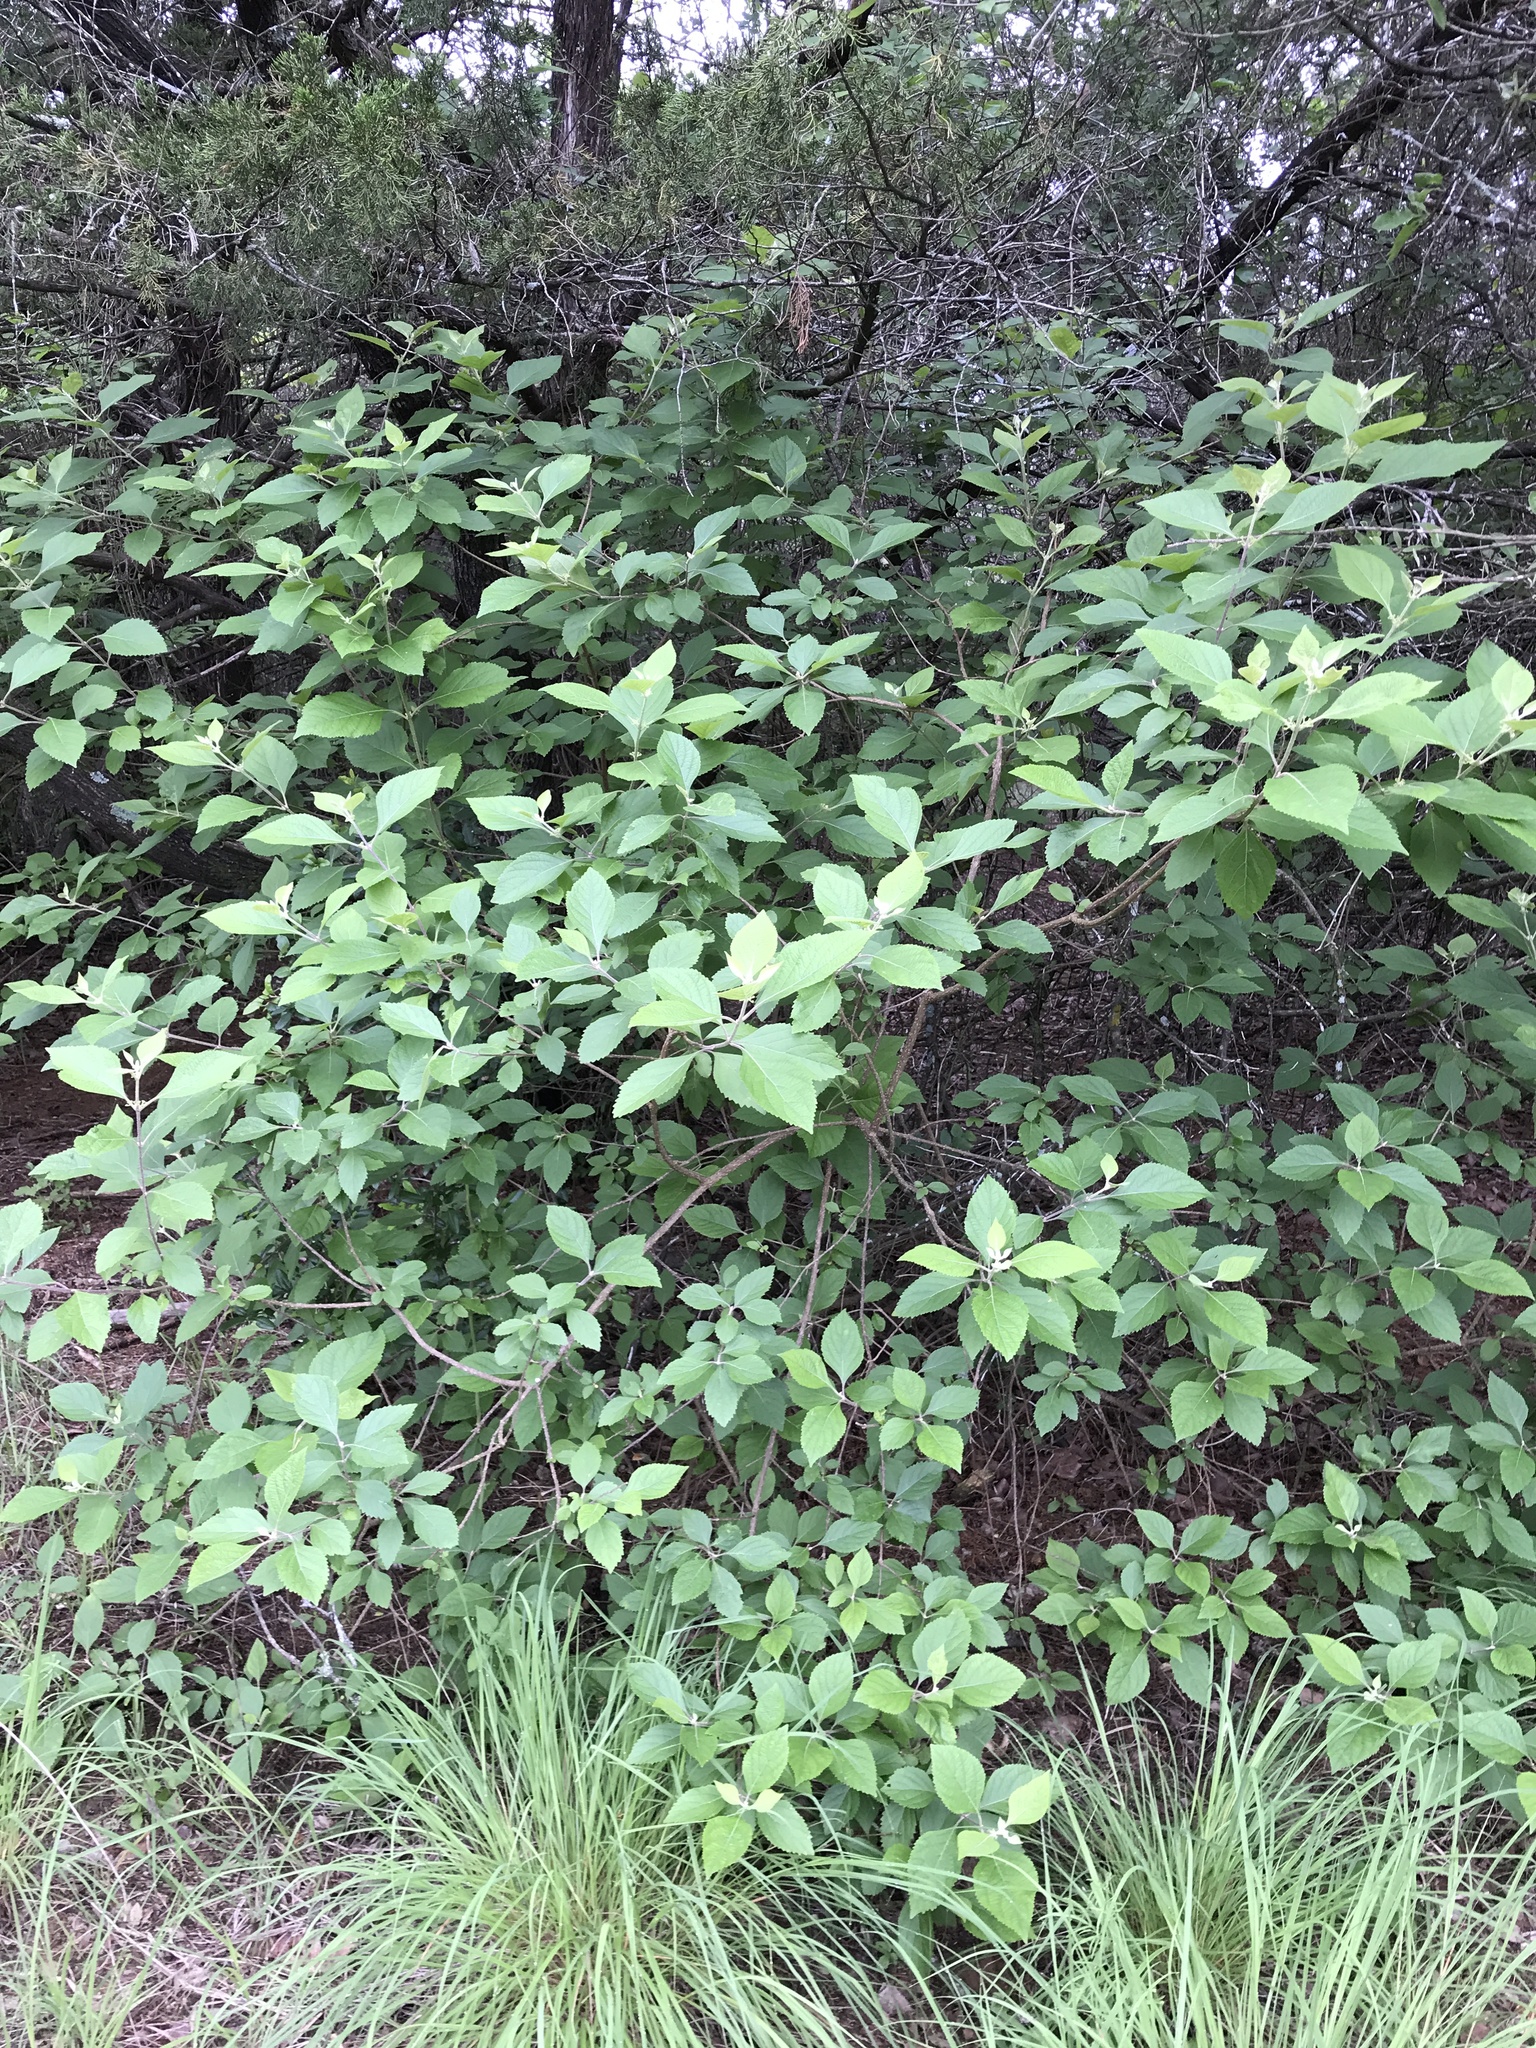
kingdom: Plantae
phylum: Tracheophyta
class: Magnoliopsida
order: Lamiales
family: Lamiaceae
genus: Callicarpa
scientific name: Callicarpa americana
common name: American beautyberry
